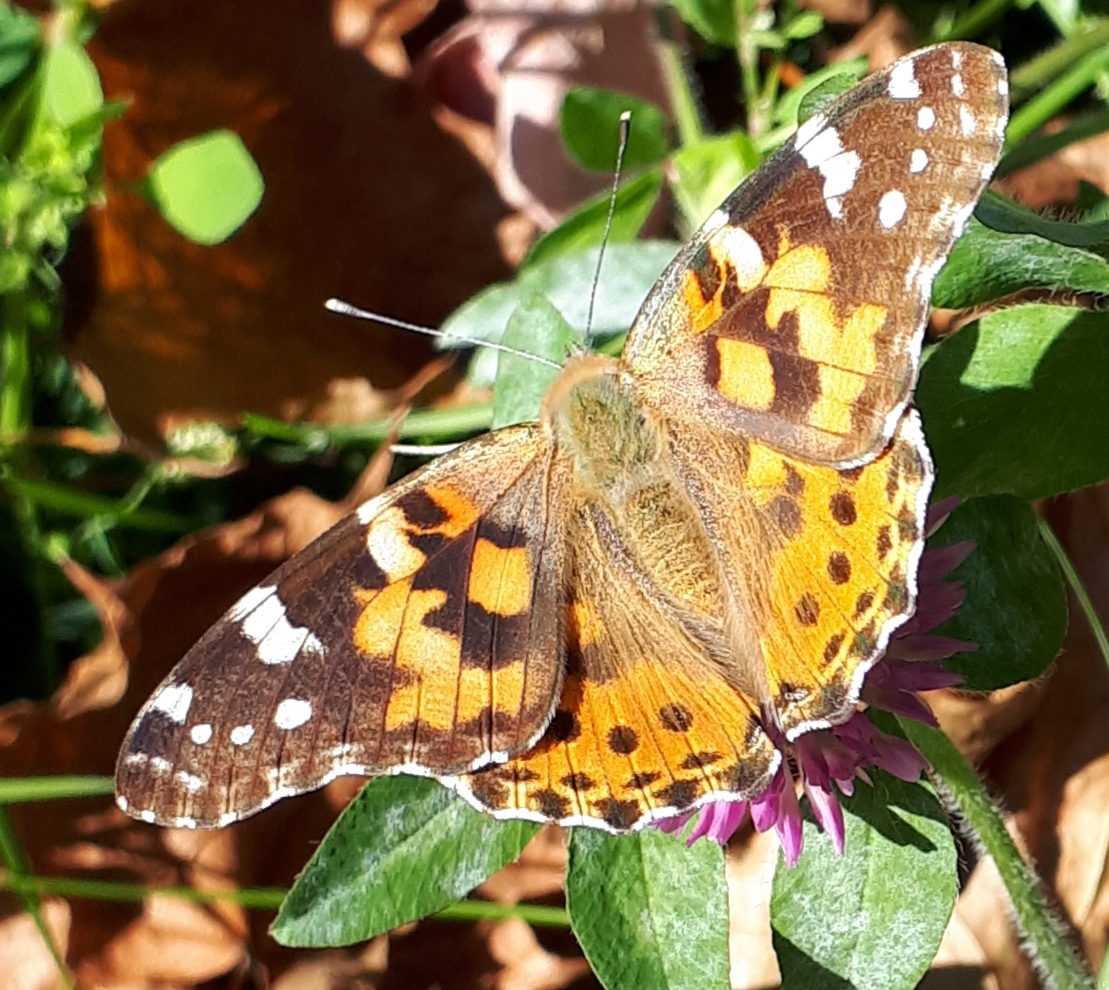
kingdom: Animalia
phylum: Arthropoda
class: Insecta
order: Lepidoptera
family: Nymphalidae
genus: Vanessa
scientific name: Vanessa cardui
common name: Painted lady
